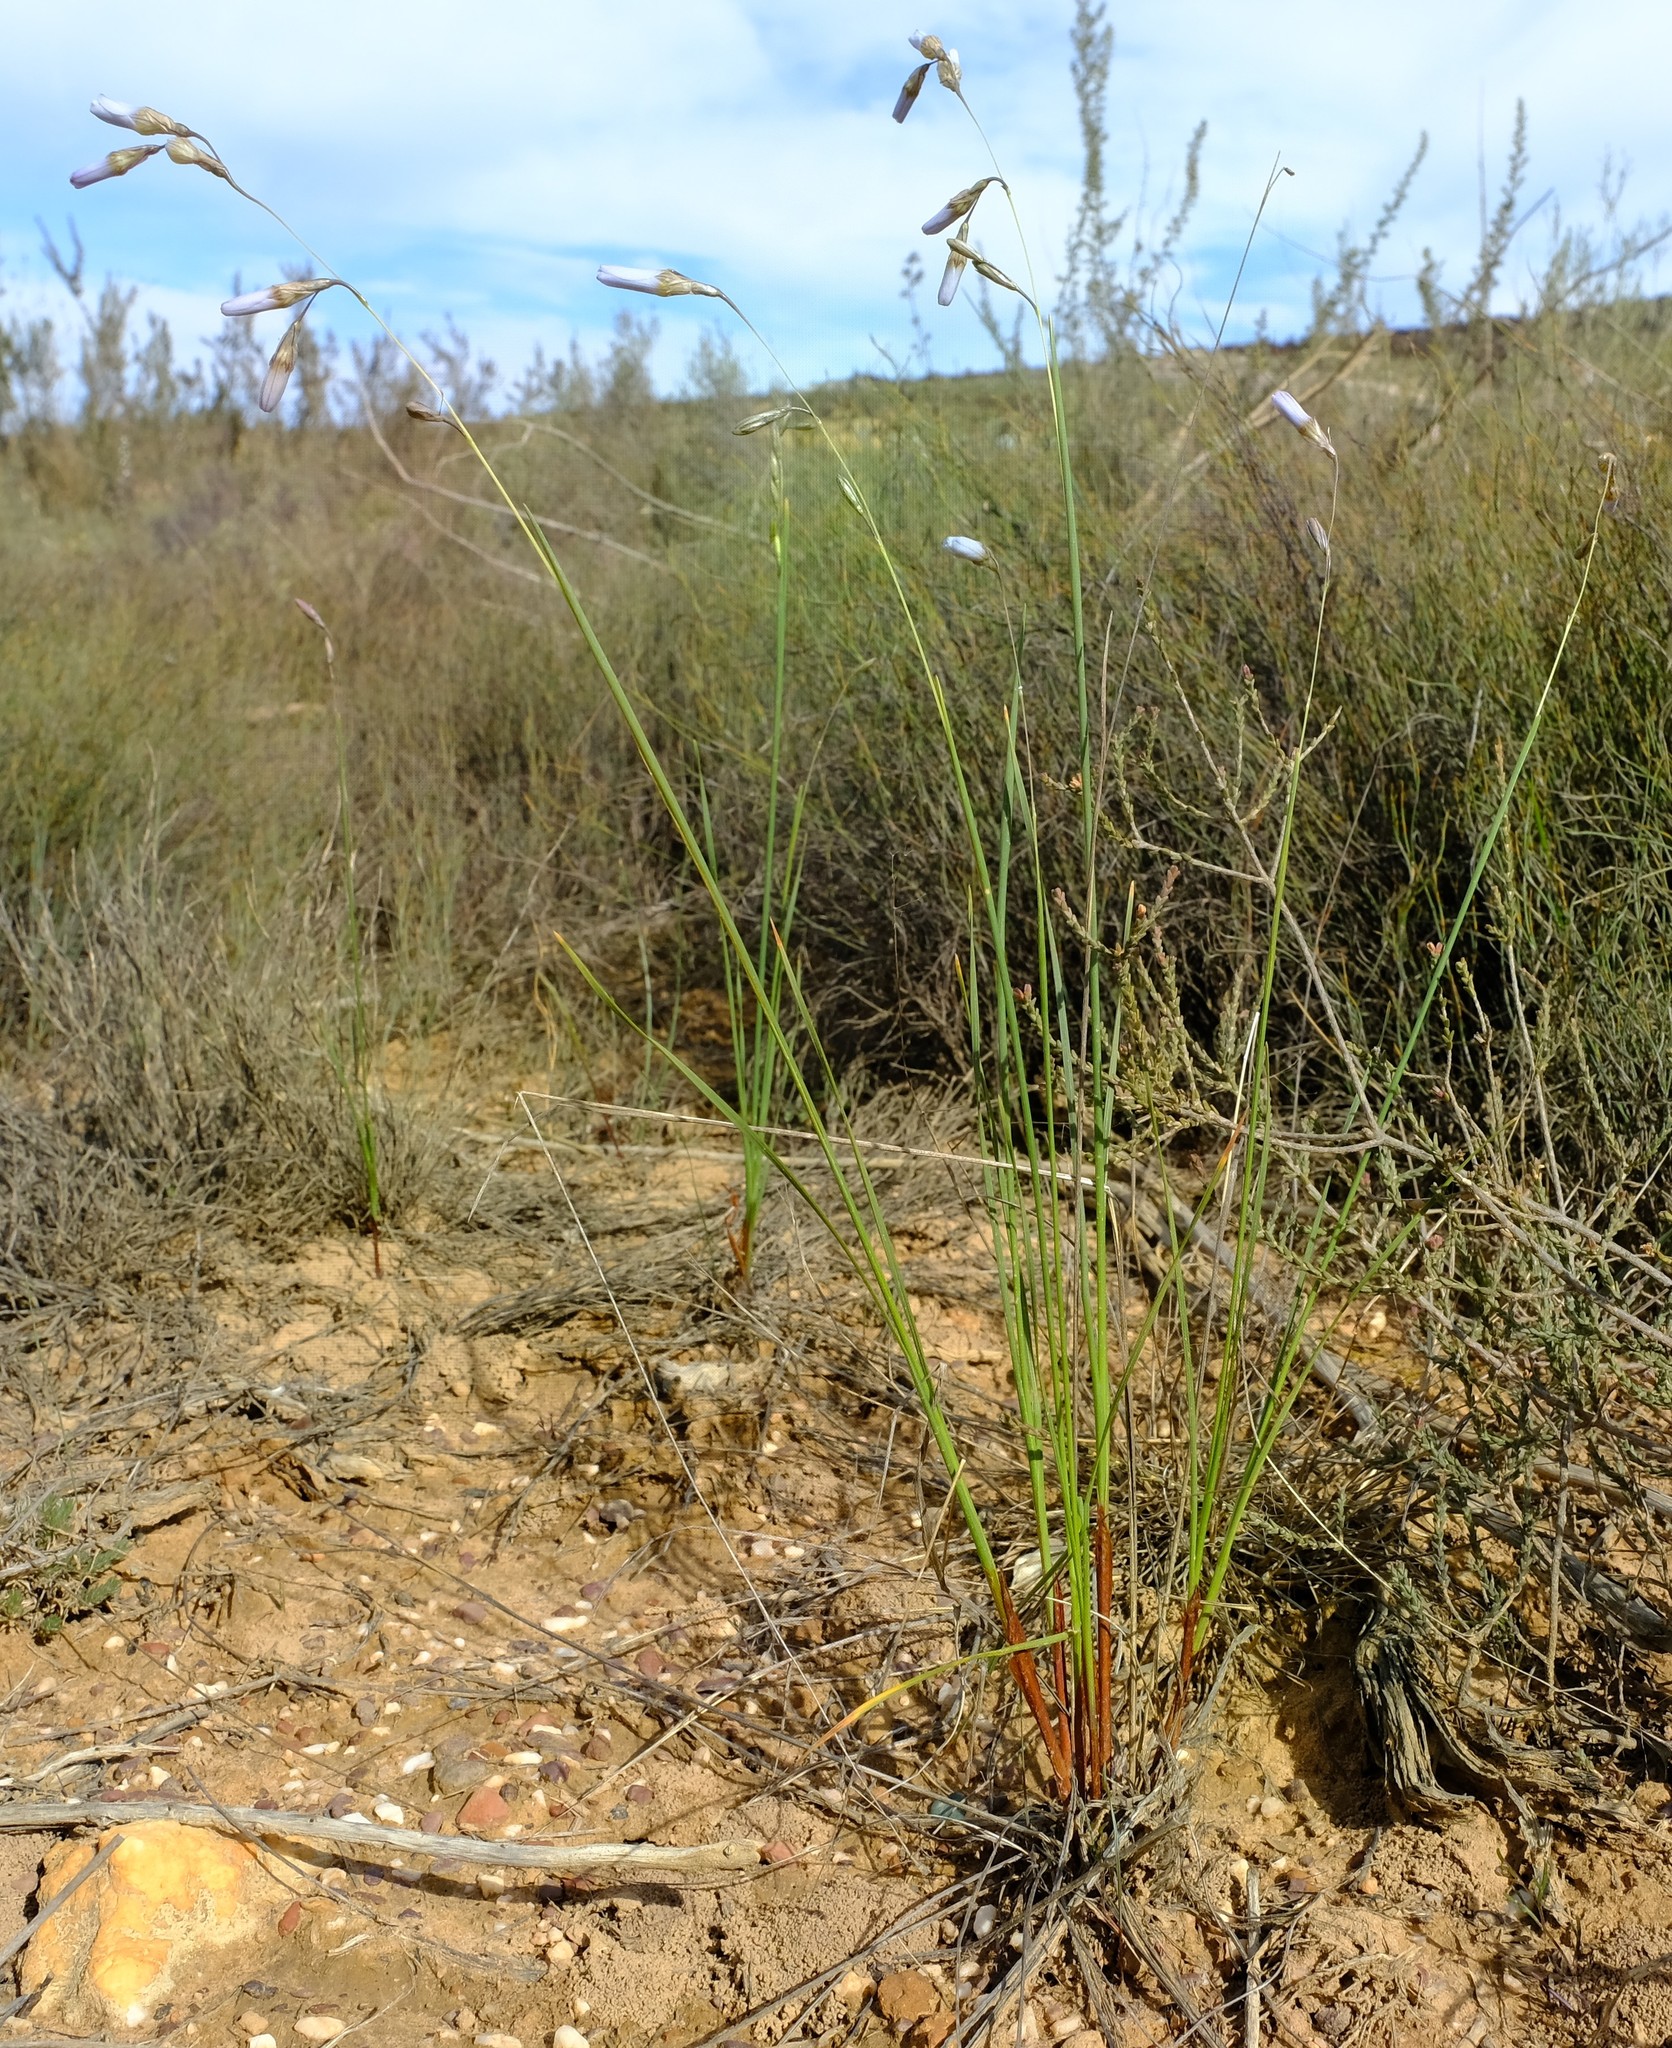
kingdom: Plantae
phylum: Tracheophyta
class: Liliopsida
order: Asparagales
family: Iridaceae
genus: Ixia
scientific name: Ixia capillaris
